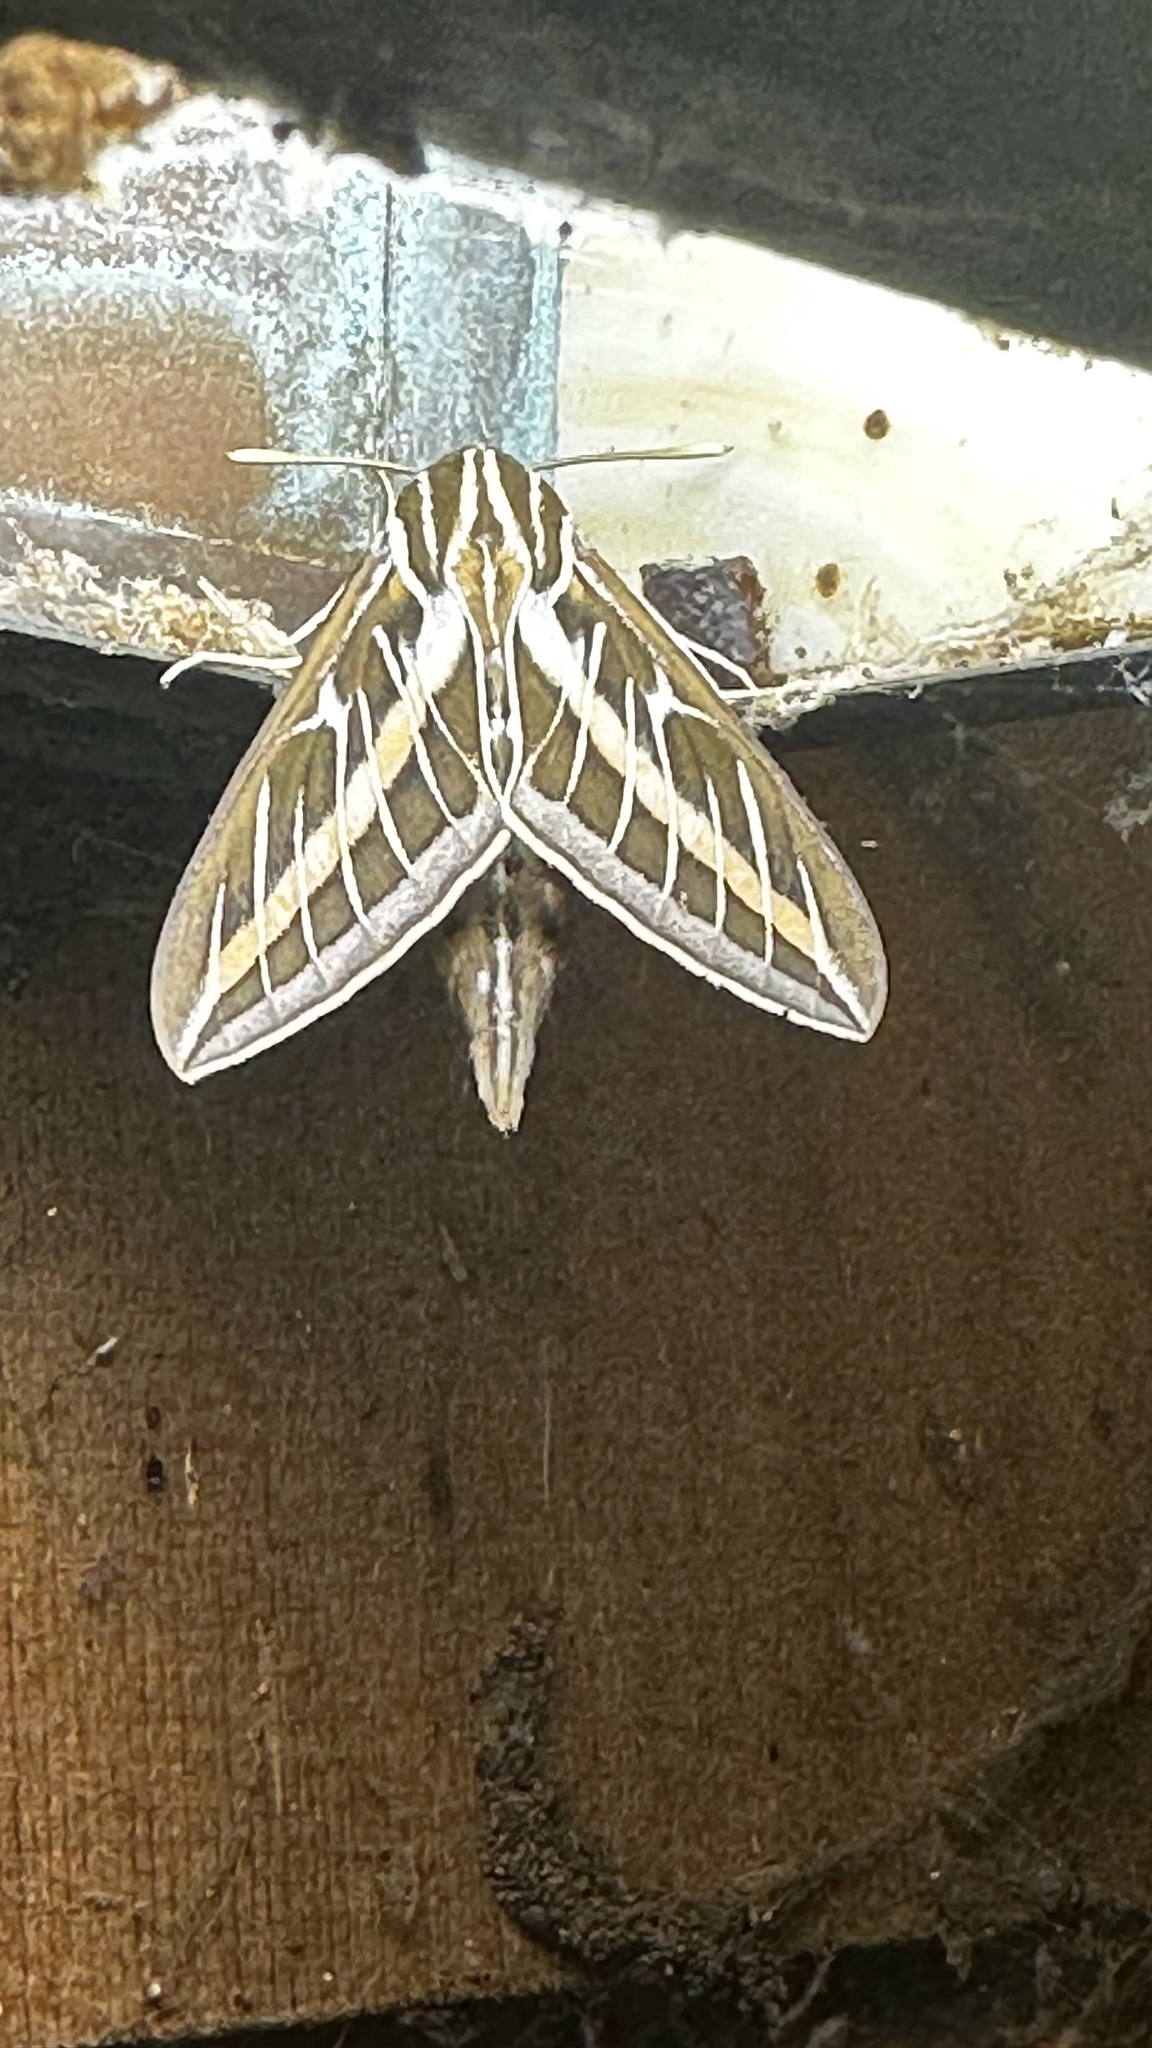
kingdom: Animalia
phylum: Arthropoda
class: Insecta
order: Lepidoptera
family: Sphingidae
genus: Hyles
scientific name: Hyles lineata
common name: White-lined sphinx
